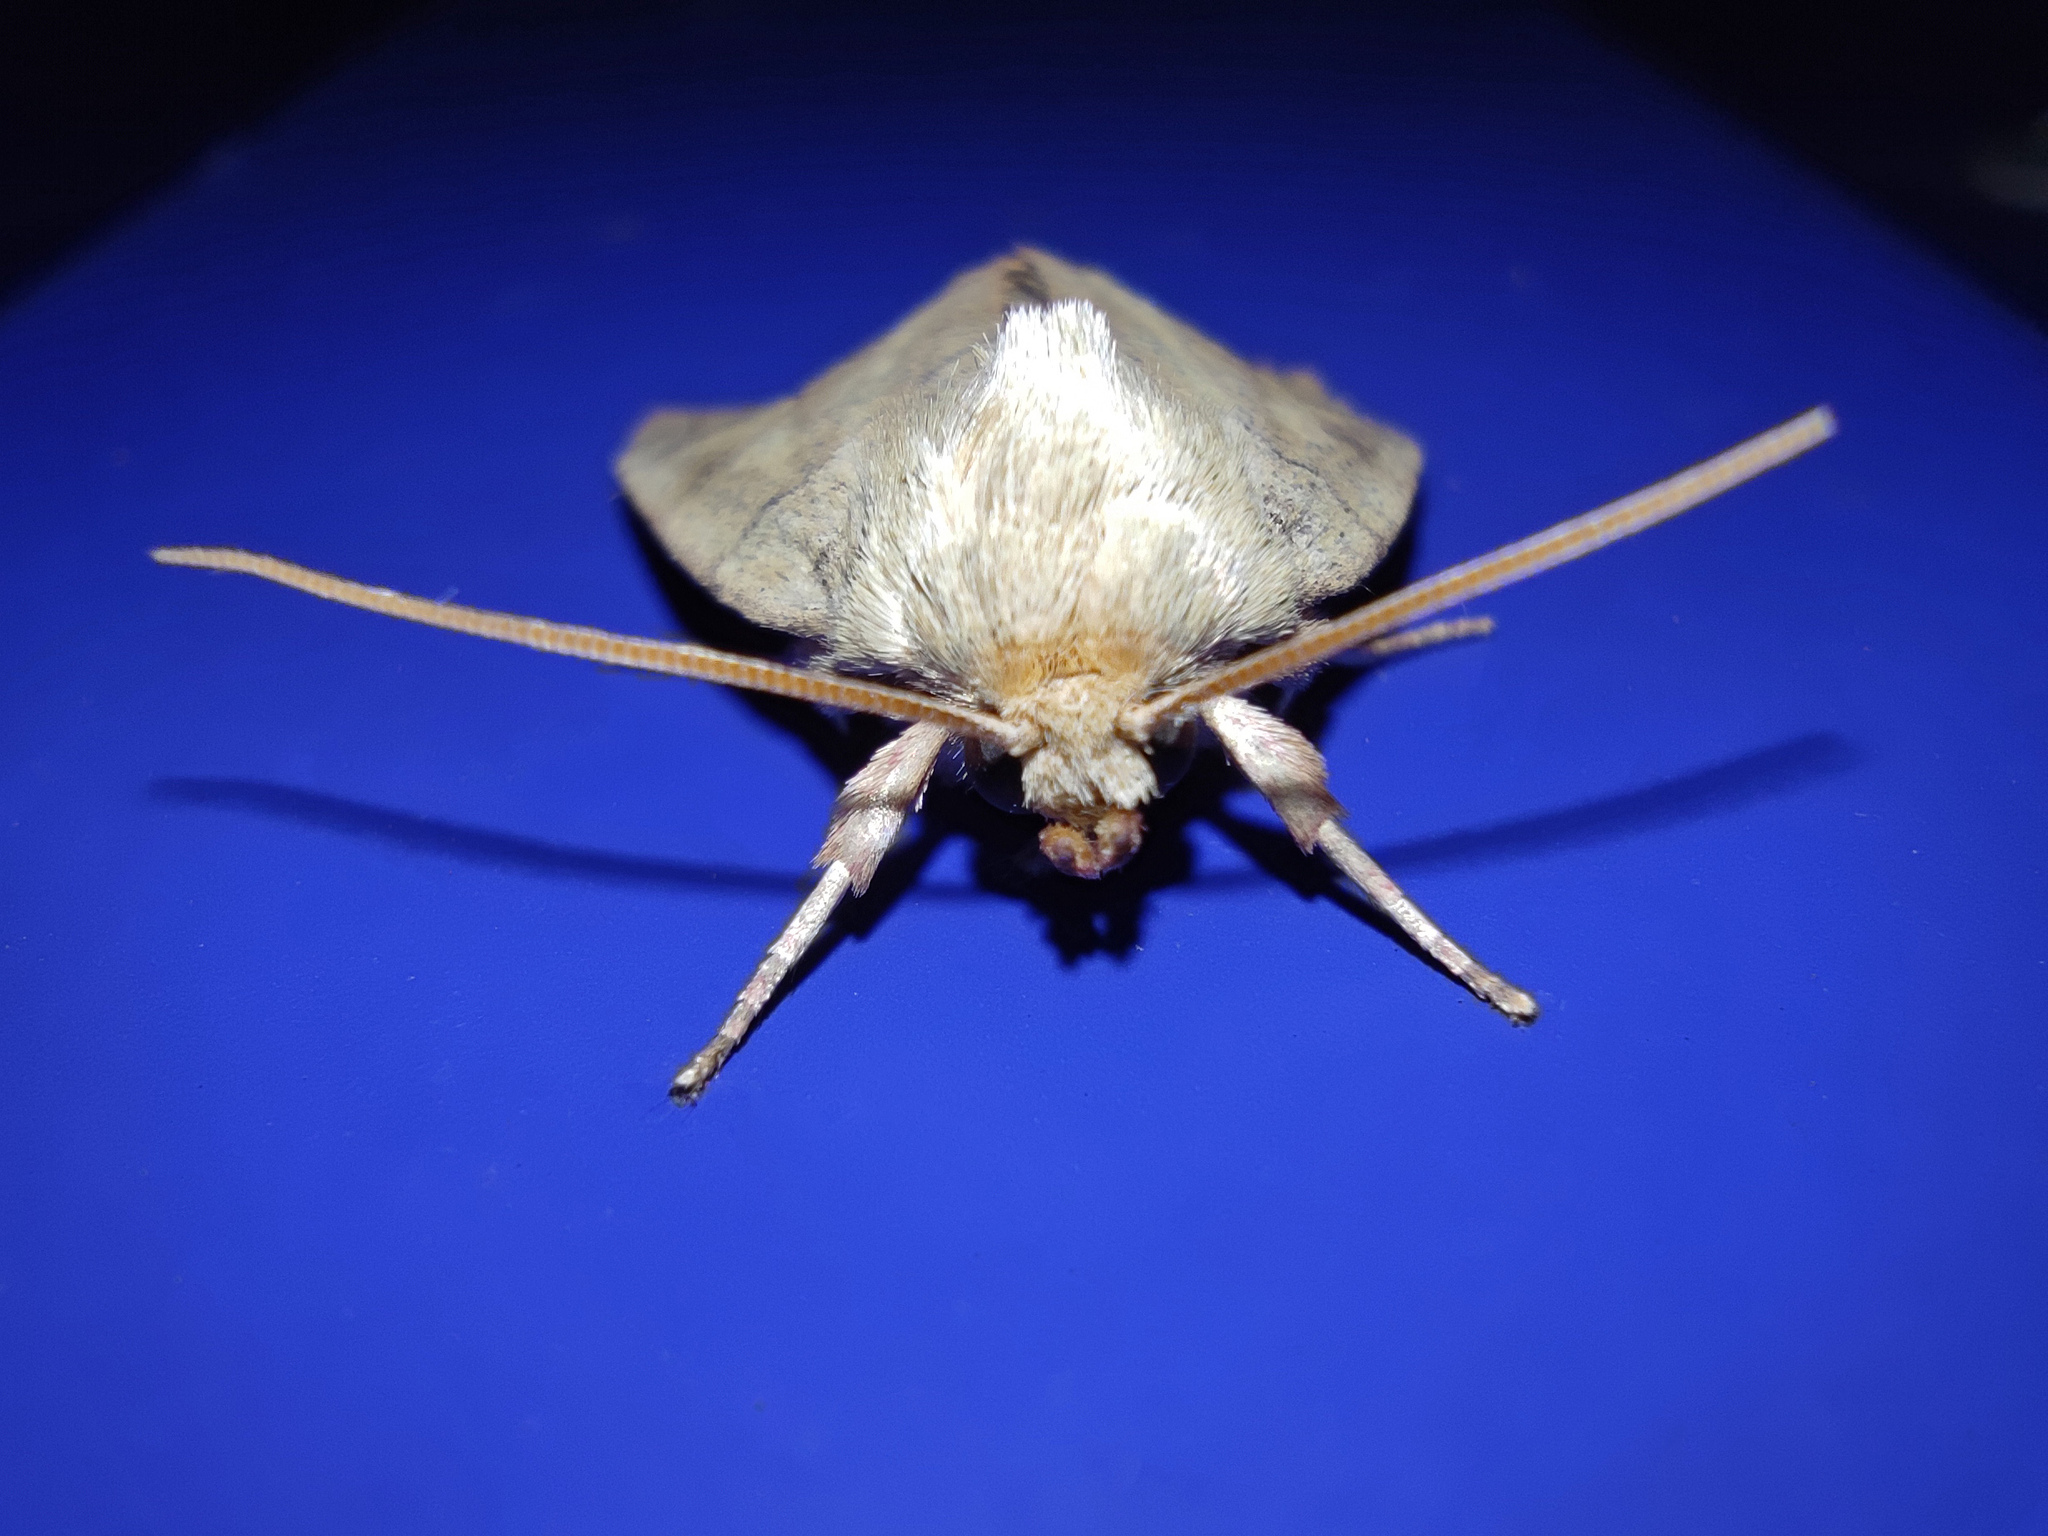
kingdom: Animalia
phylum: Arthropoda
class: Insecta
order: Lepidoptera
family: Noctuidae
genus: Cosmia
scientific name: Cosmia trapezina
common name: Dun-bar
